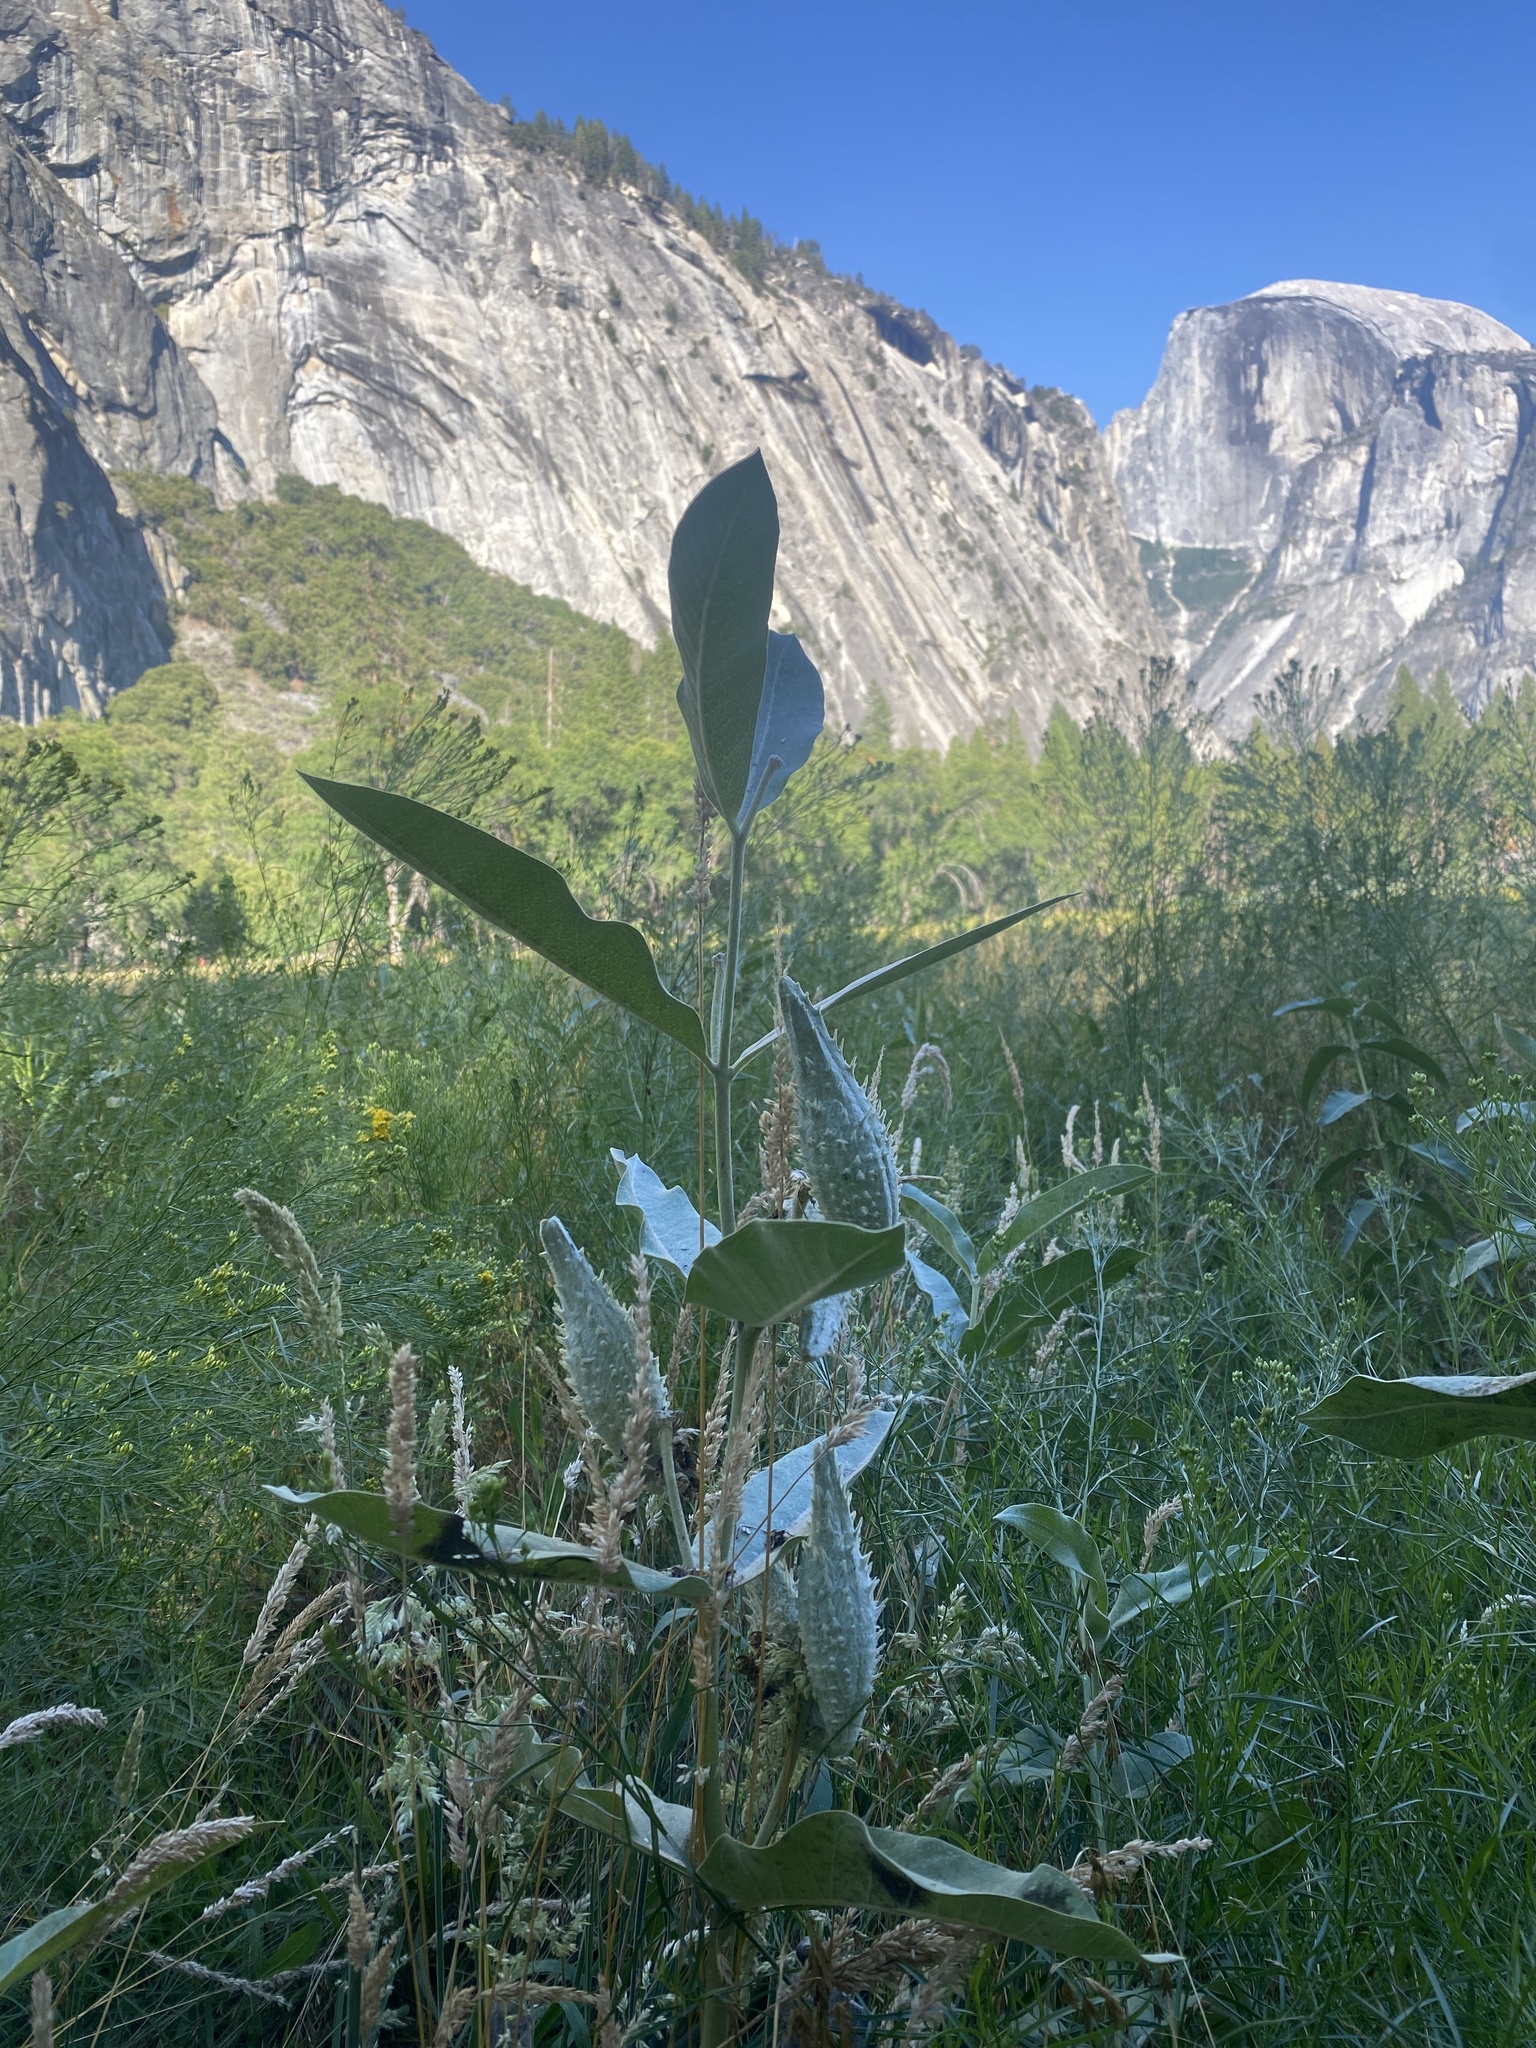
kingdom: Plantae
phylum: Tracheophyta
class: Magnoliopsida
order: Gentianales
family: Apocynaceae
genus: Asclepias
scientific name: Asclepias speciosa
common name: Showy milkweed
